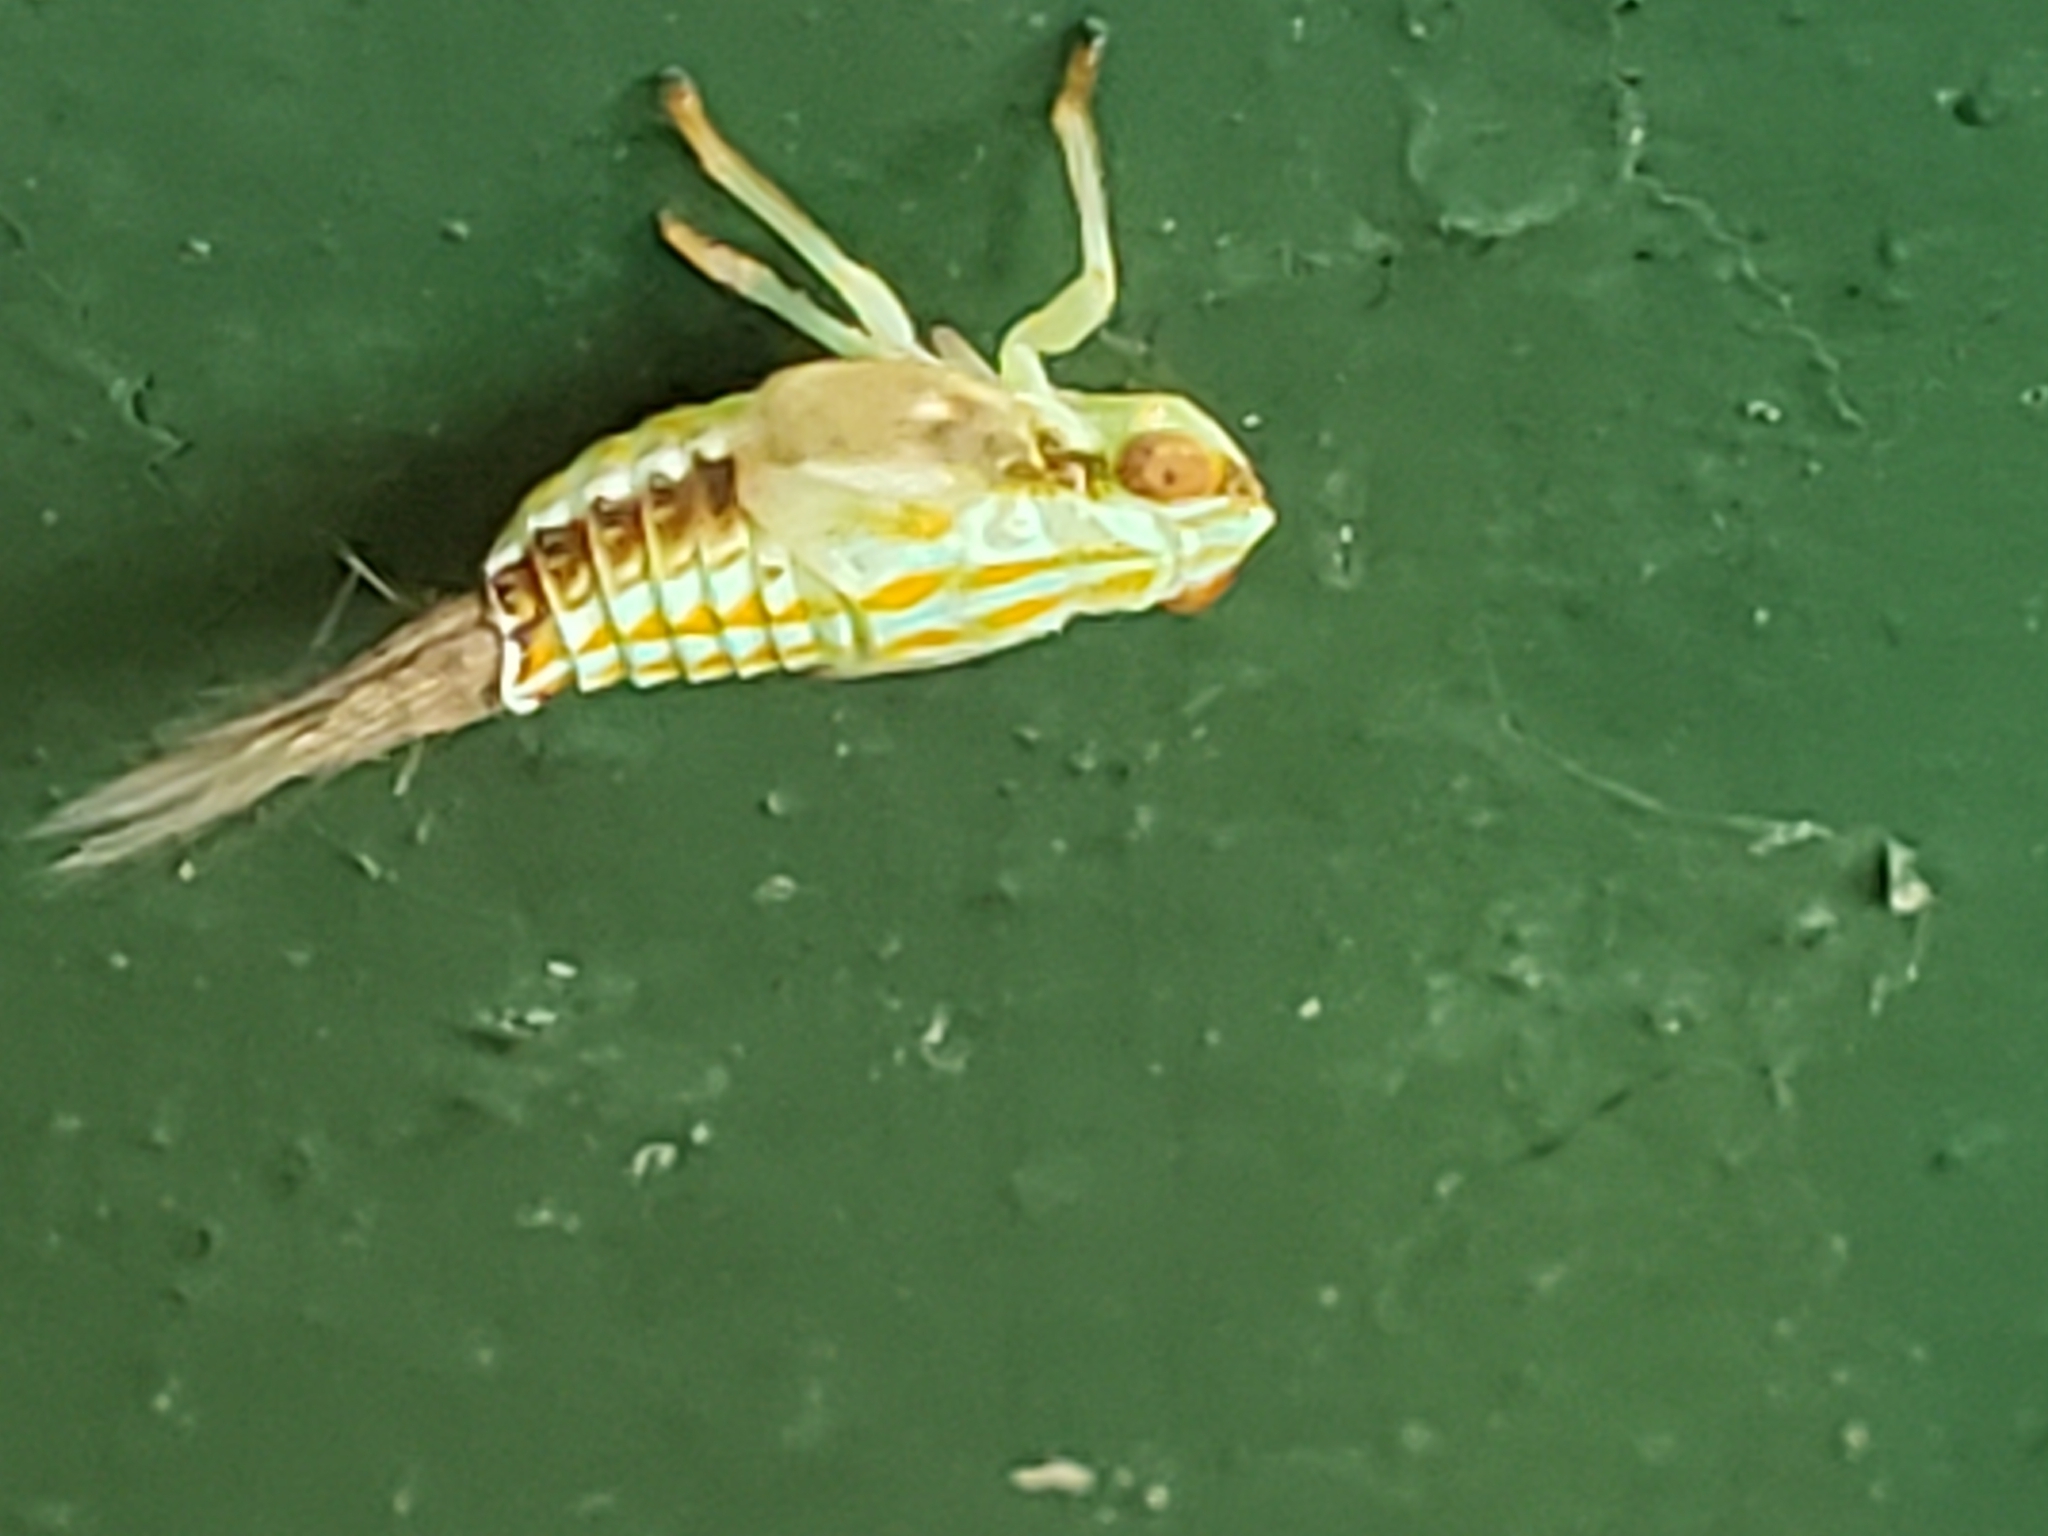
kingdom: Animalia
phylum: Arthropoda
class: Insecta
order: Hemiptera
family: Issidae
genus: Thionia
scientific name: Thionia bullata
